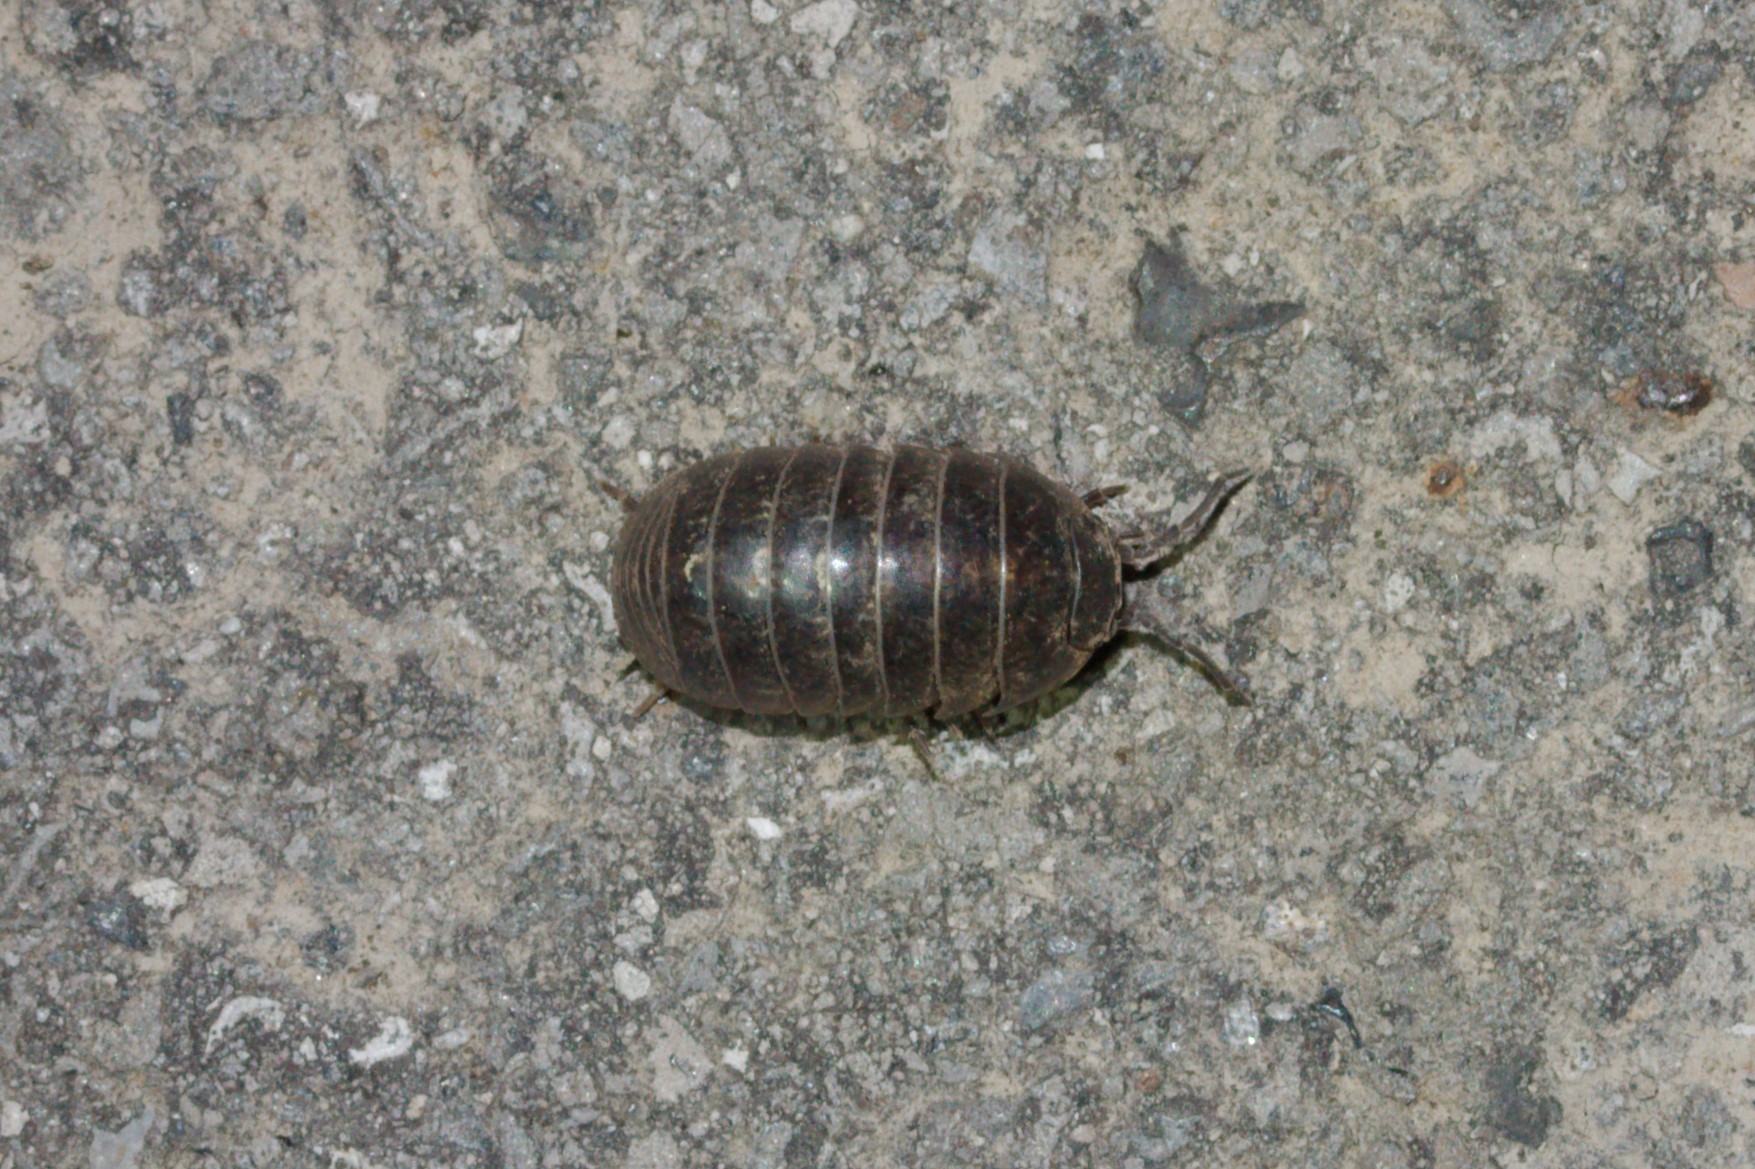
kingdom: Animalia
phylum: Arthropoda
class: Malacostraca
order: Isopoda
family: Armadillidiidae
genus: Armadillidium
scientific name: Armadillidium vulgare
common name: Common pill woodlouse
